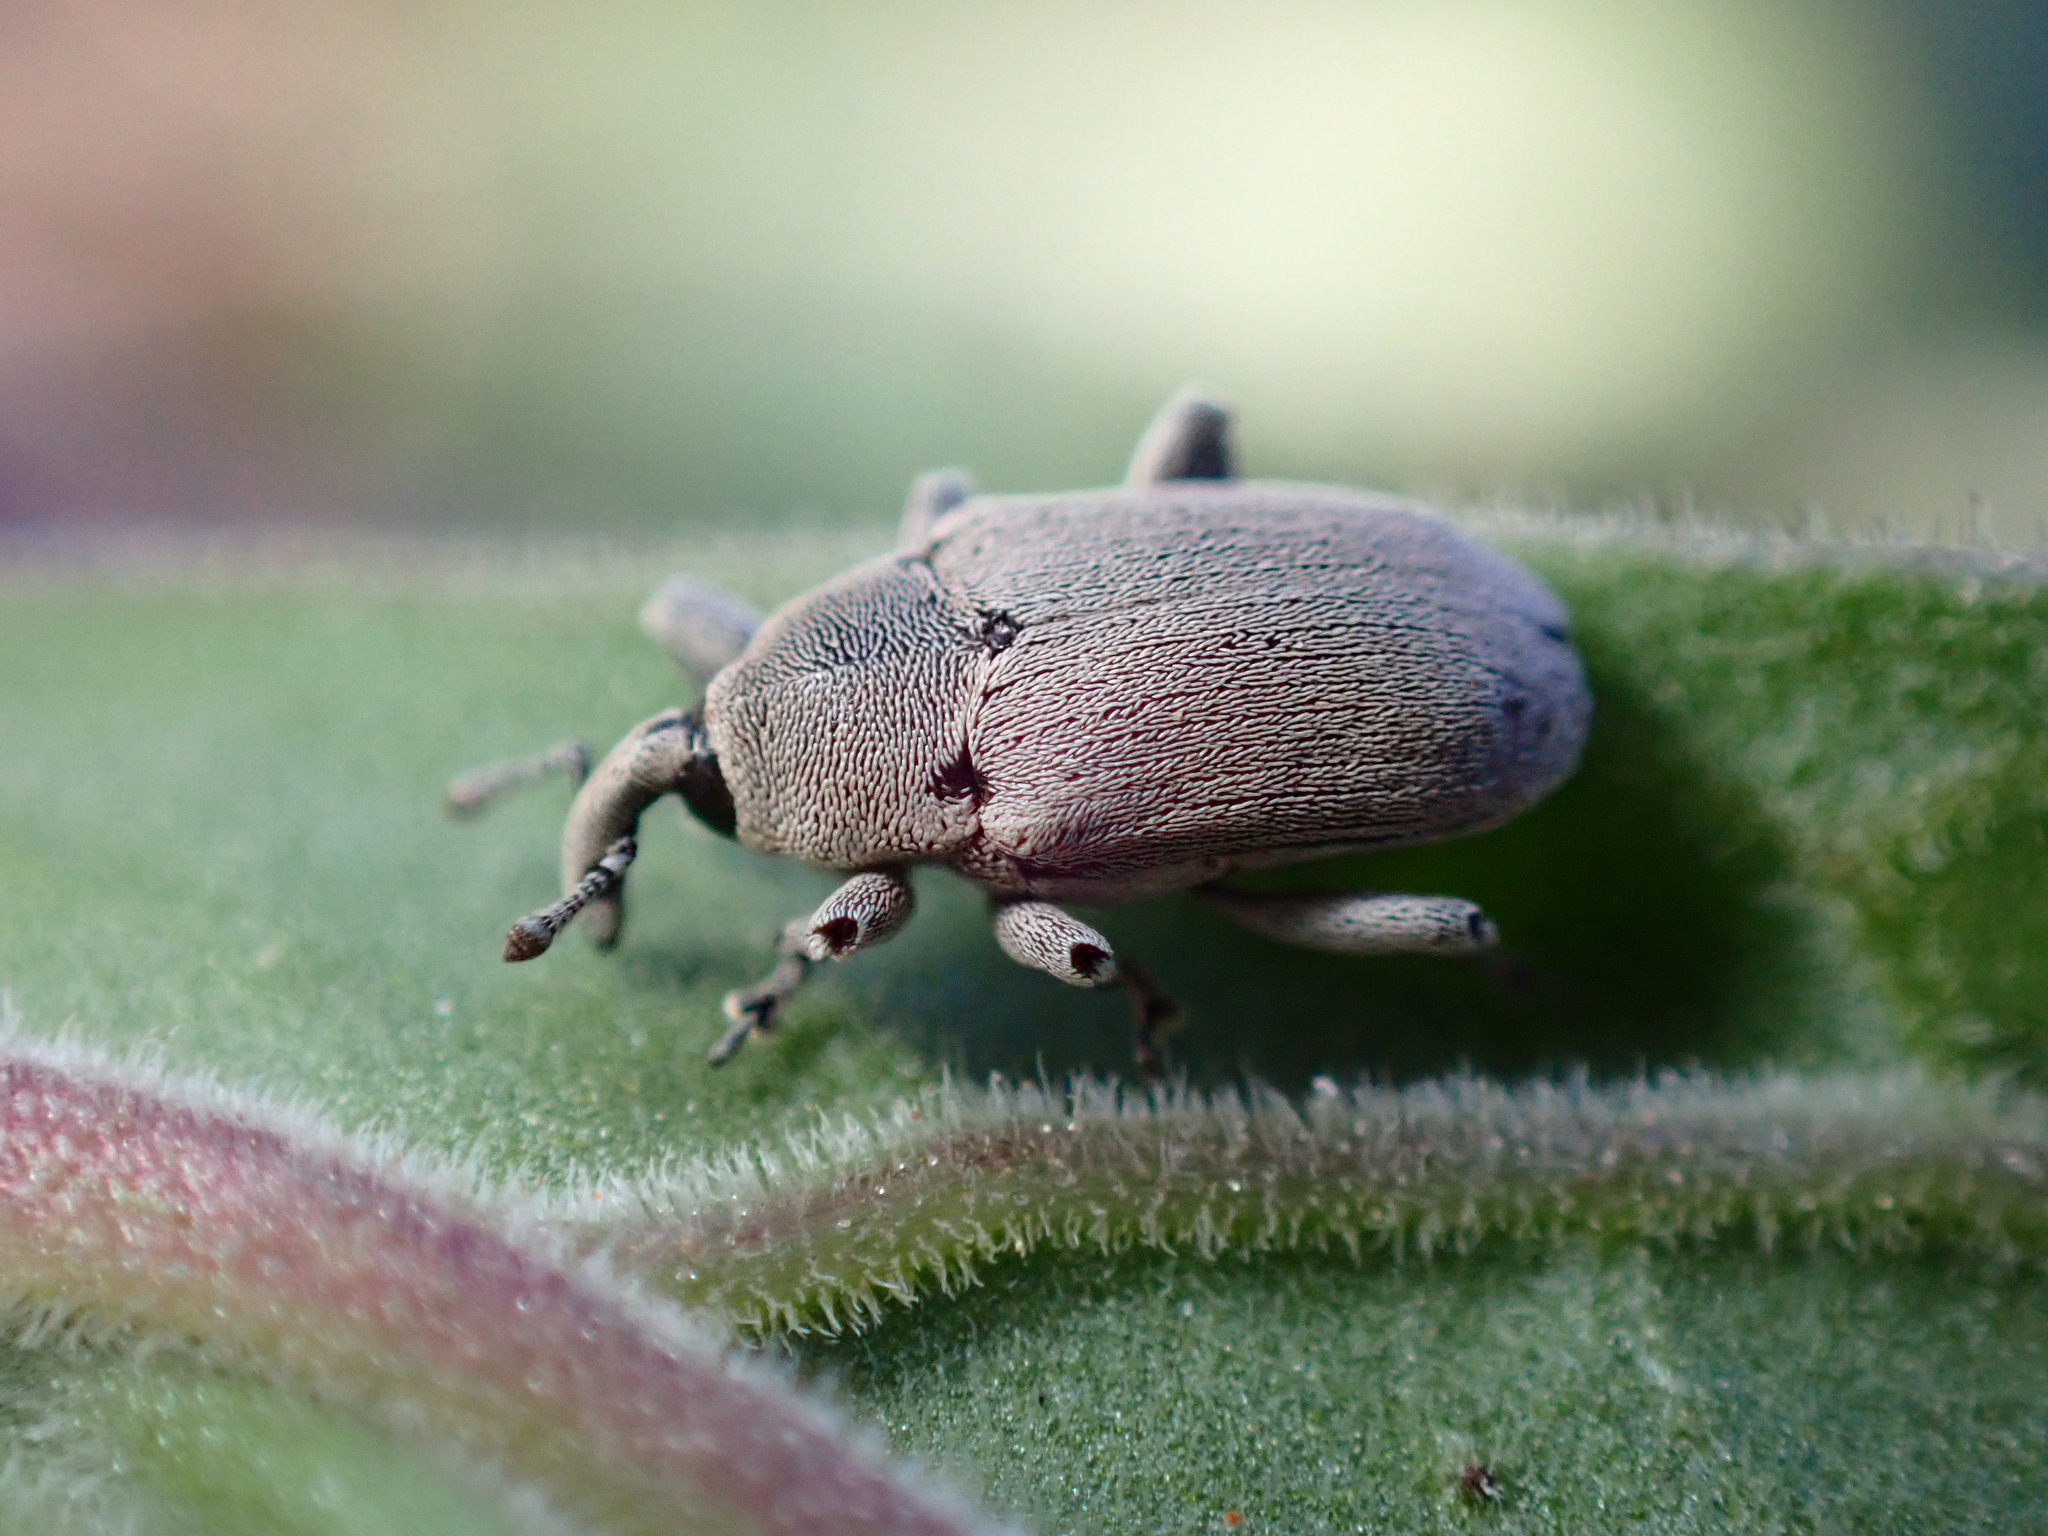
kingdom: Animalia
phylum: Arthropoda
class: Insecta
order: Coleoptera
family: Curculionidae
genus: Trichobaris
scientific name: Trichobaris compacta
